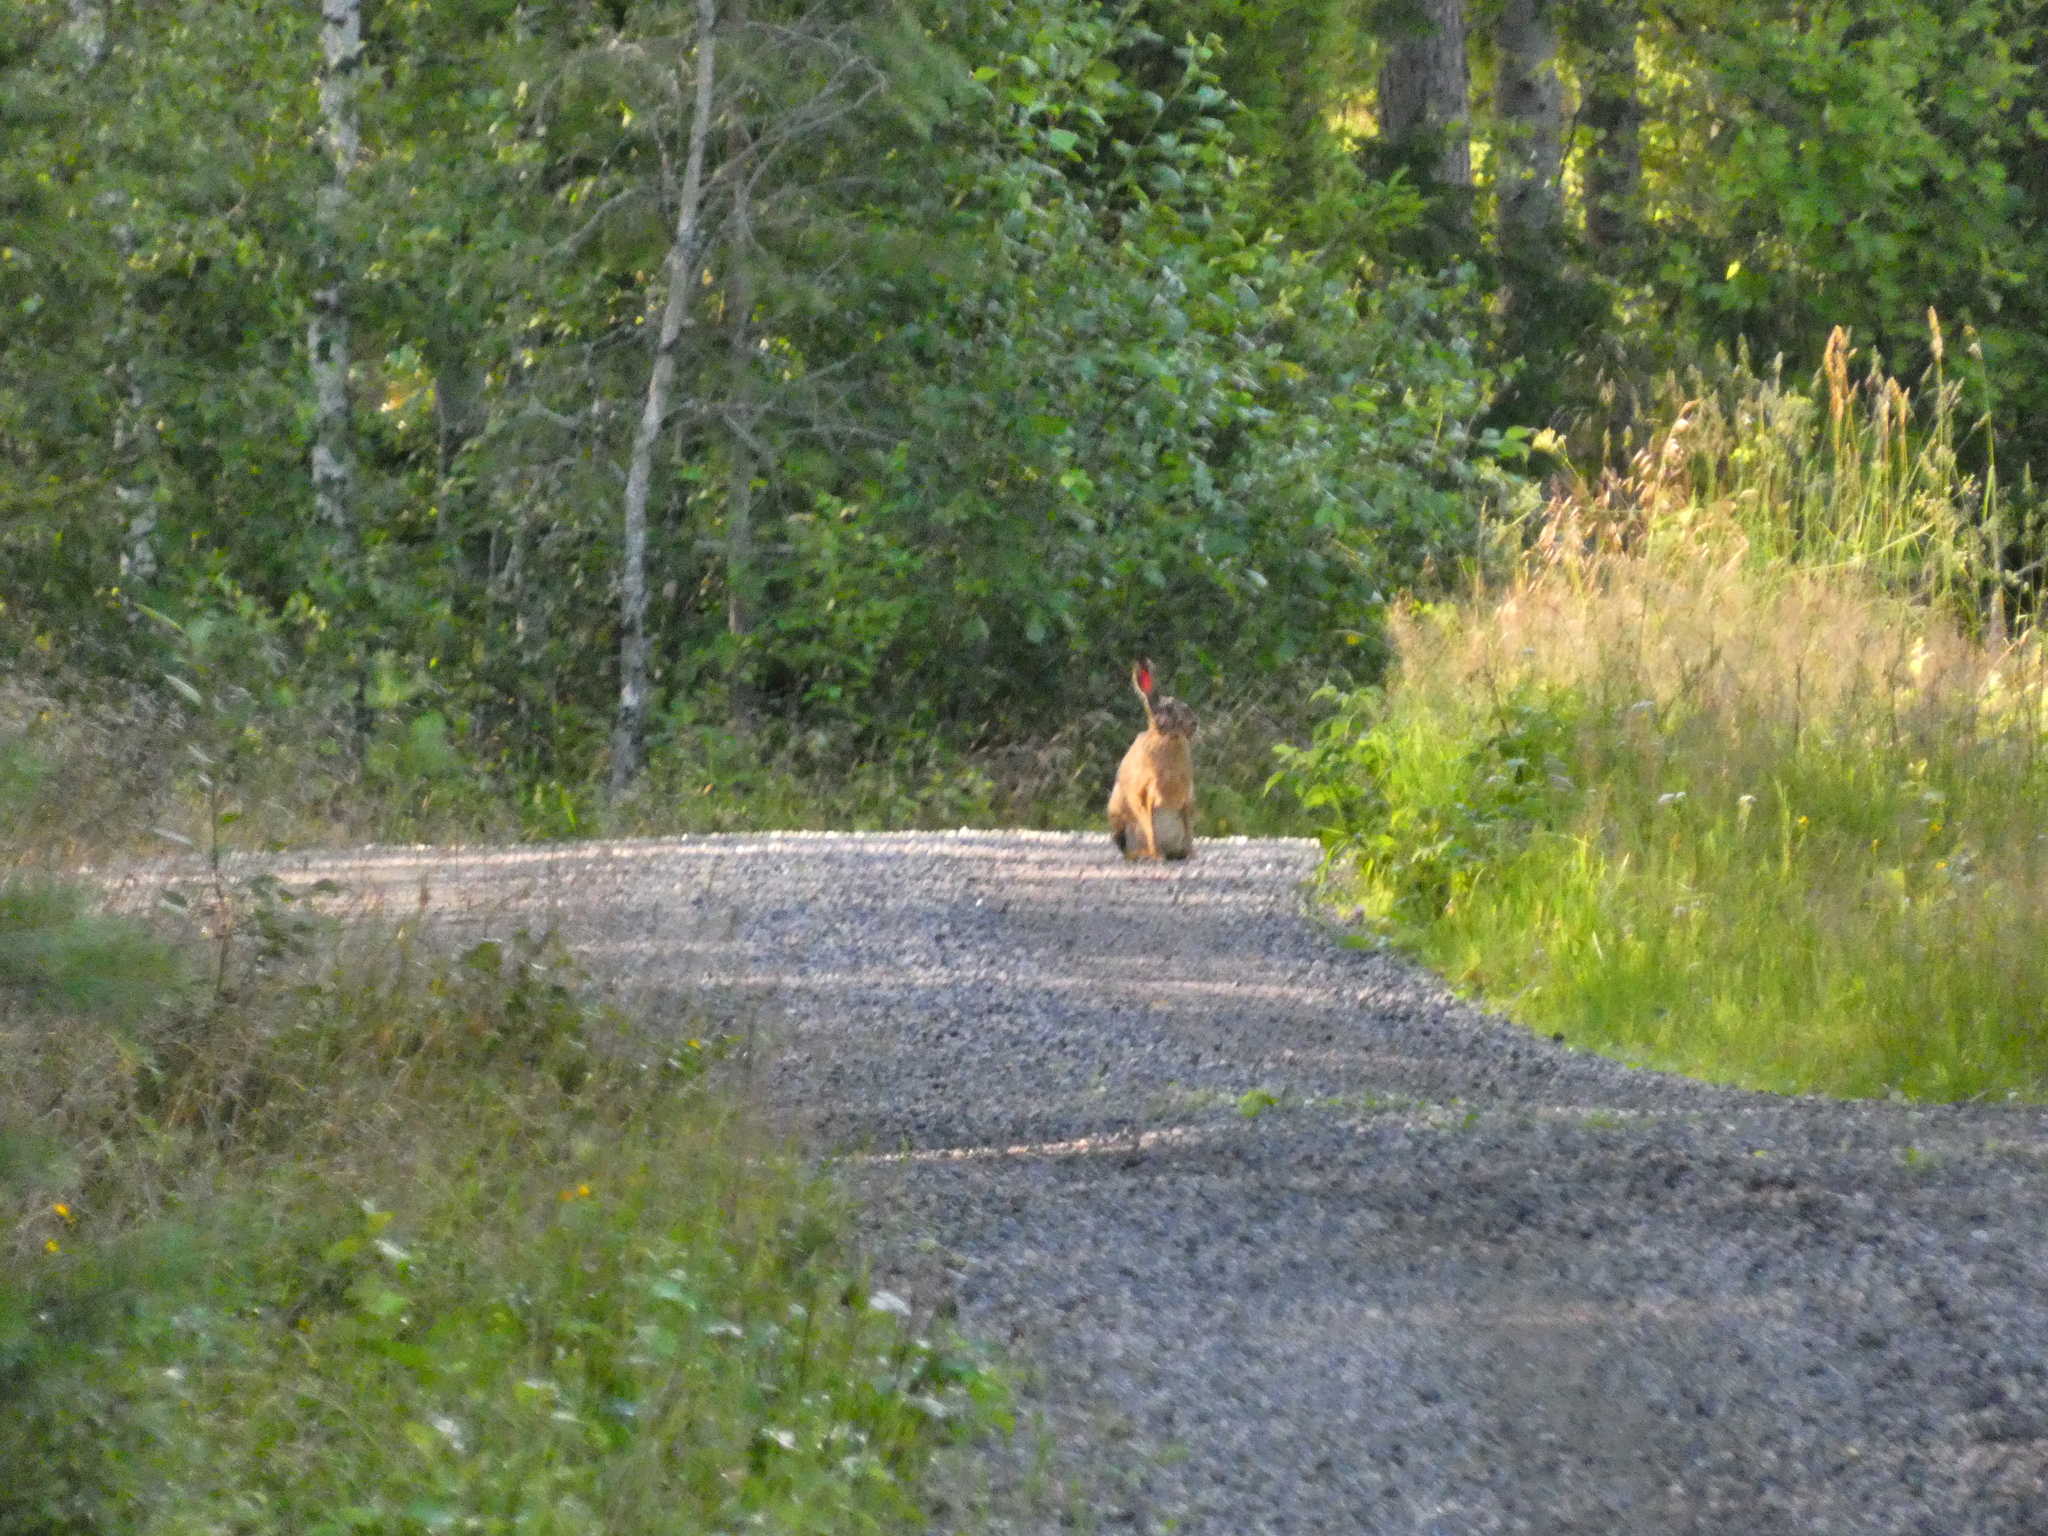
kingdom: Animalia
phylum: Chordata
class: Mammalia
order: Lagomorpha
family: Leporidae
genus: Lepus
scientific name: Lepus europaeus
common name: European hare
